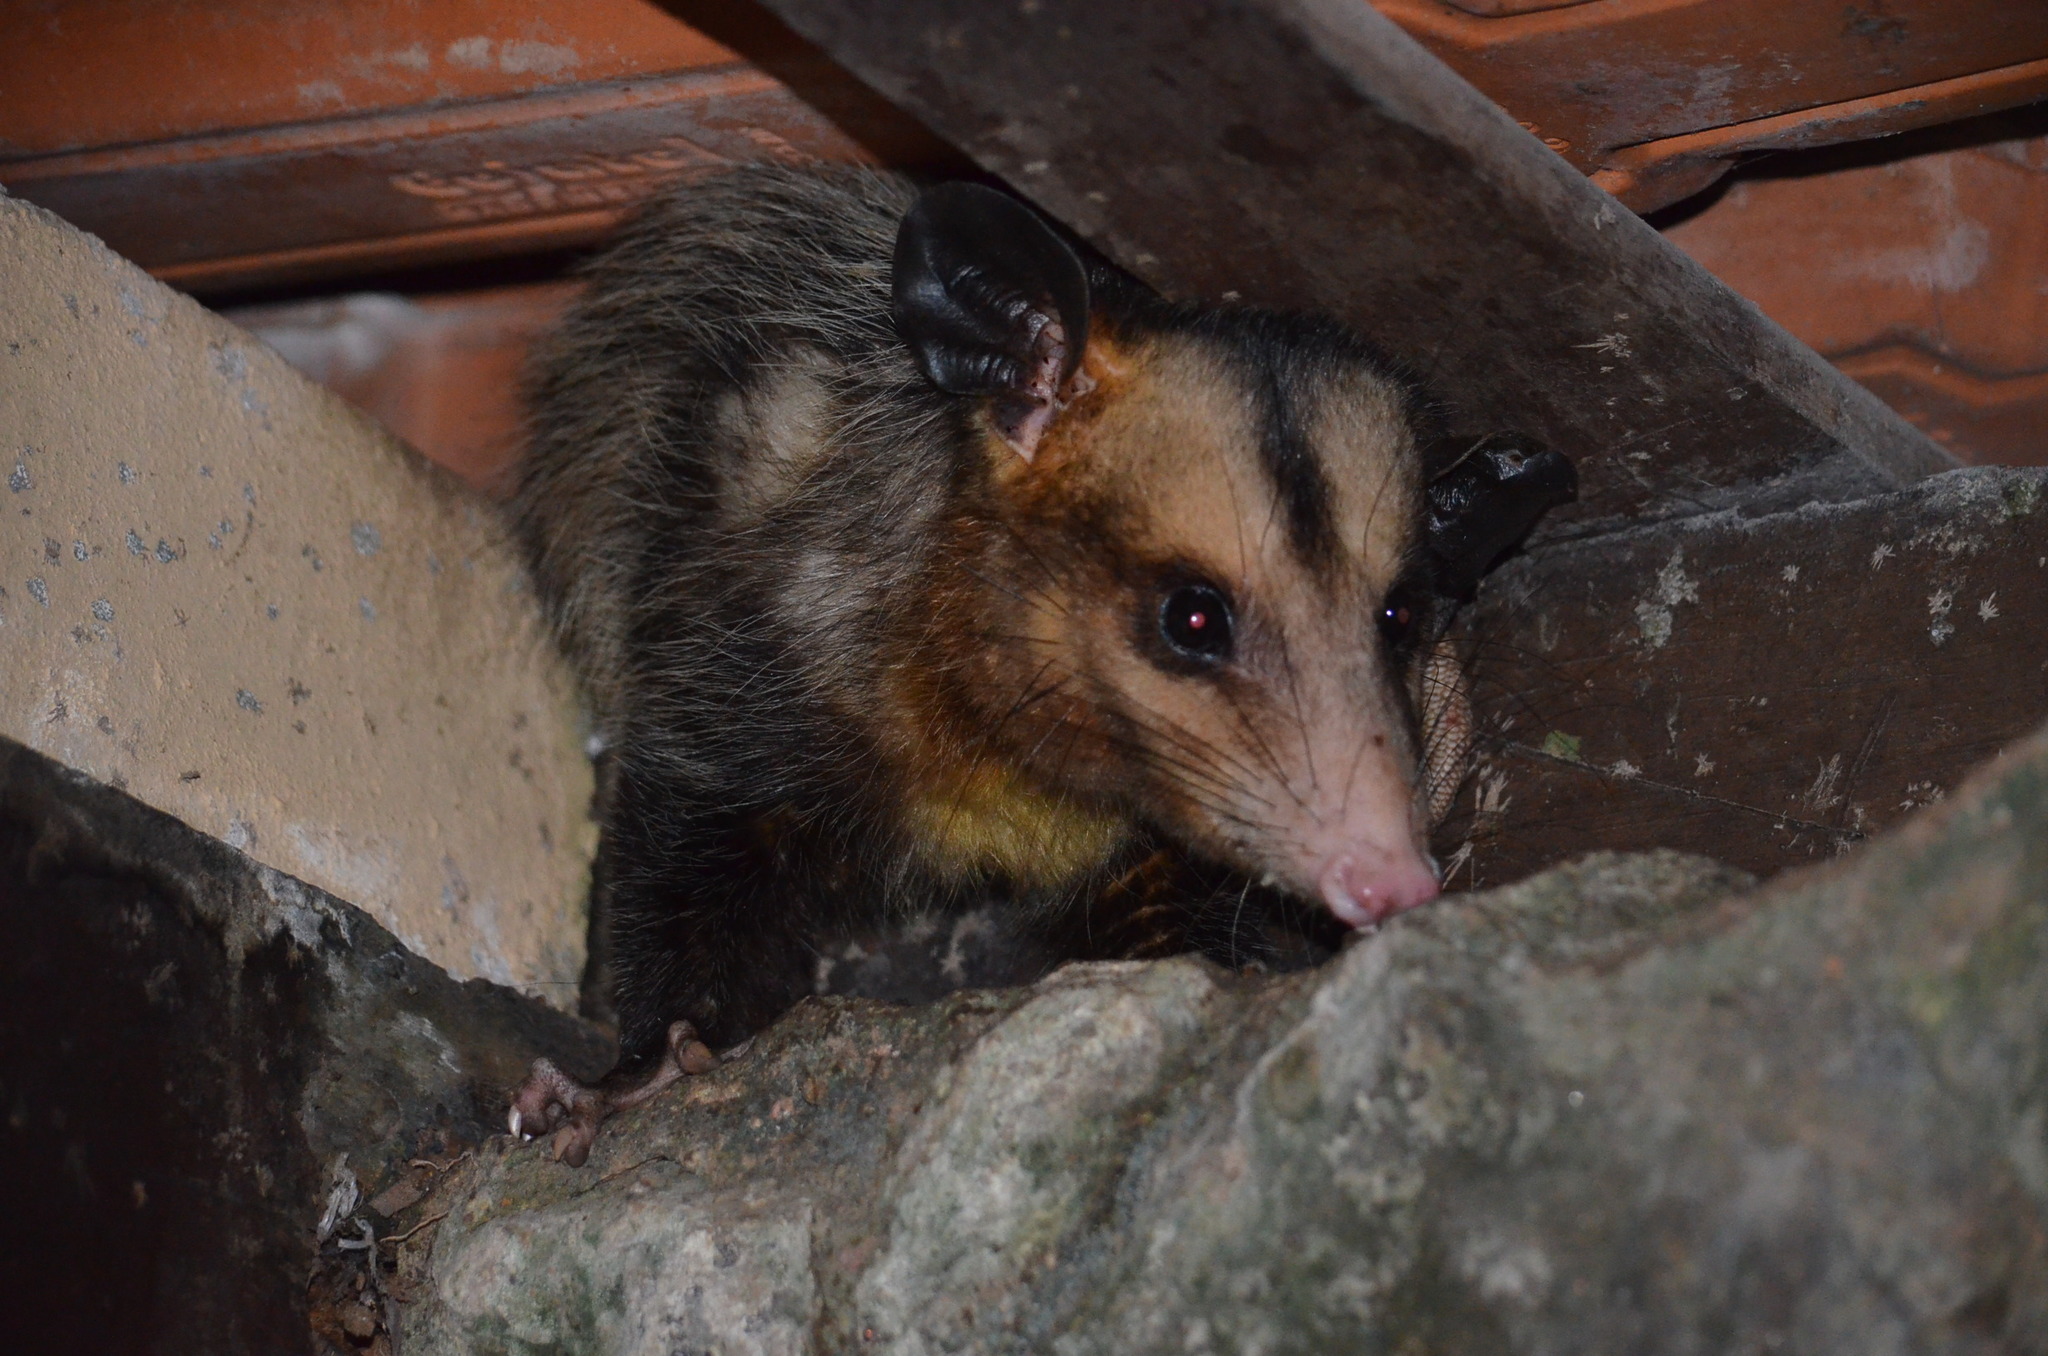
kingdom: Animalia
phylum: Chordata
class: Mammalia
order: Didelphimorphia
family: Didelphidae
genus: Didelphis
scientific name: Didelphis aurita
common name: Big-eared opossum
